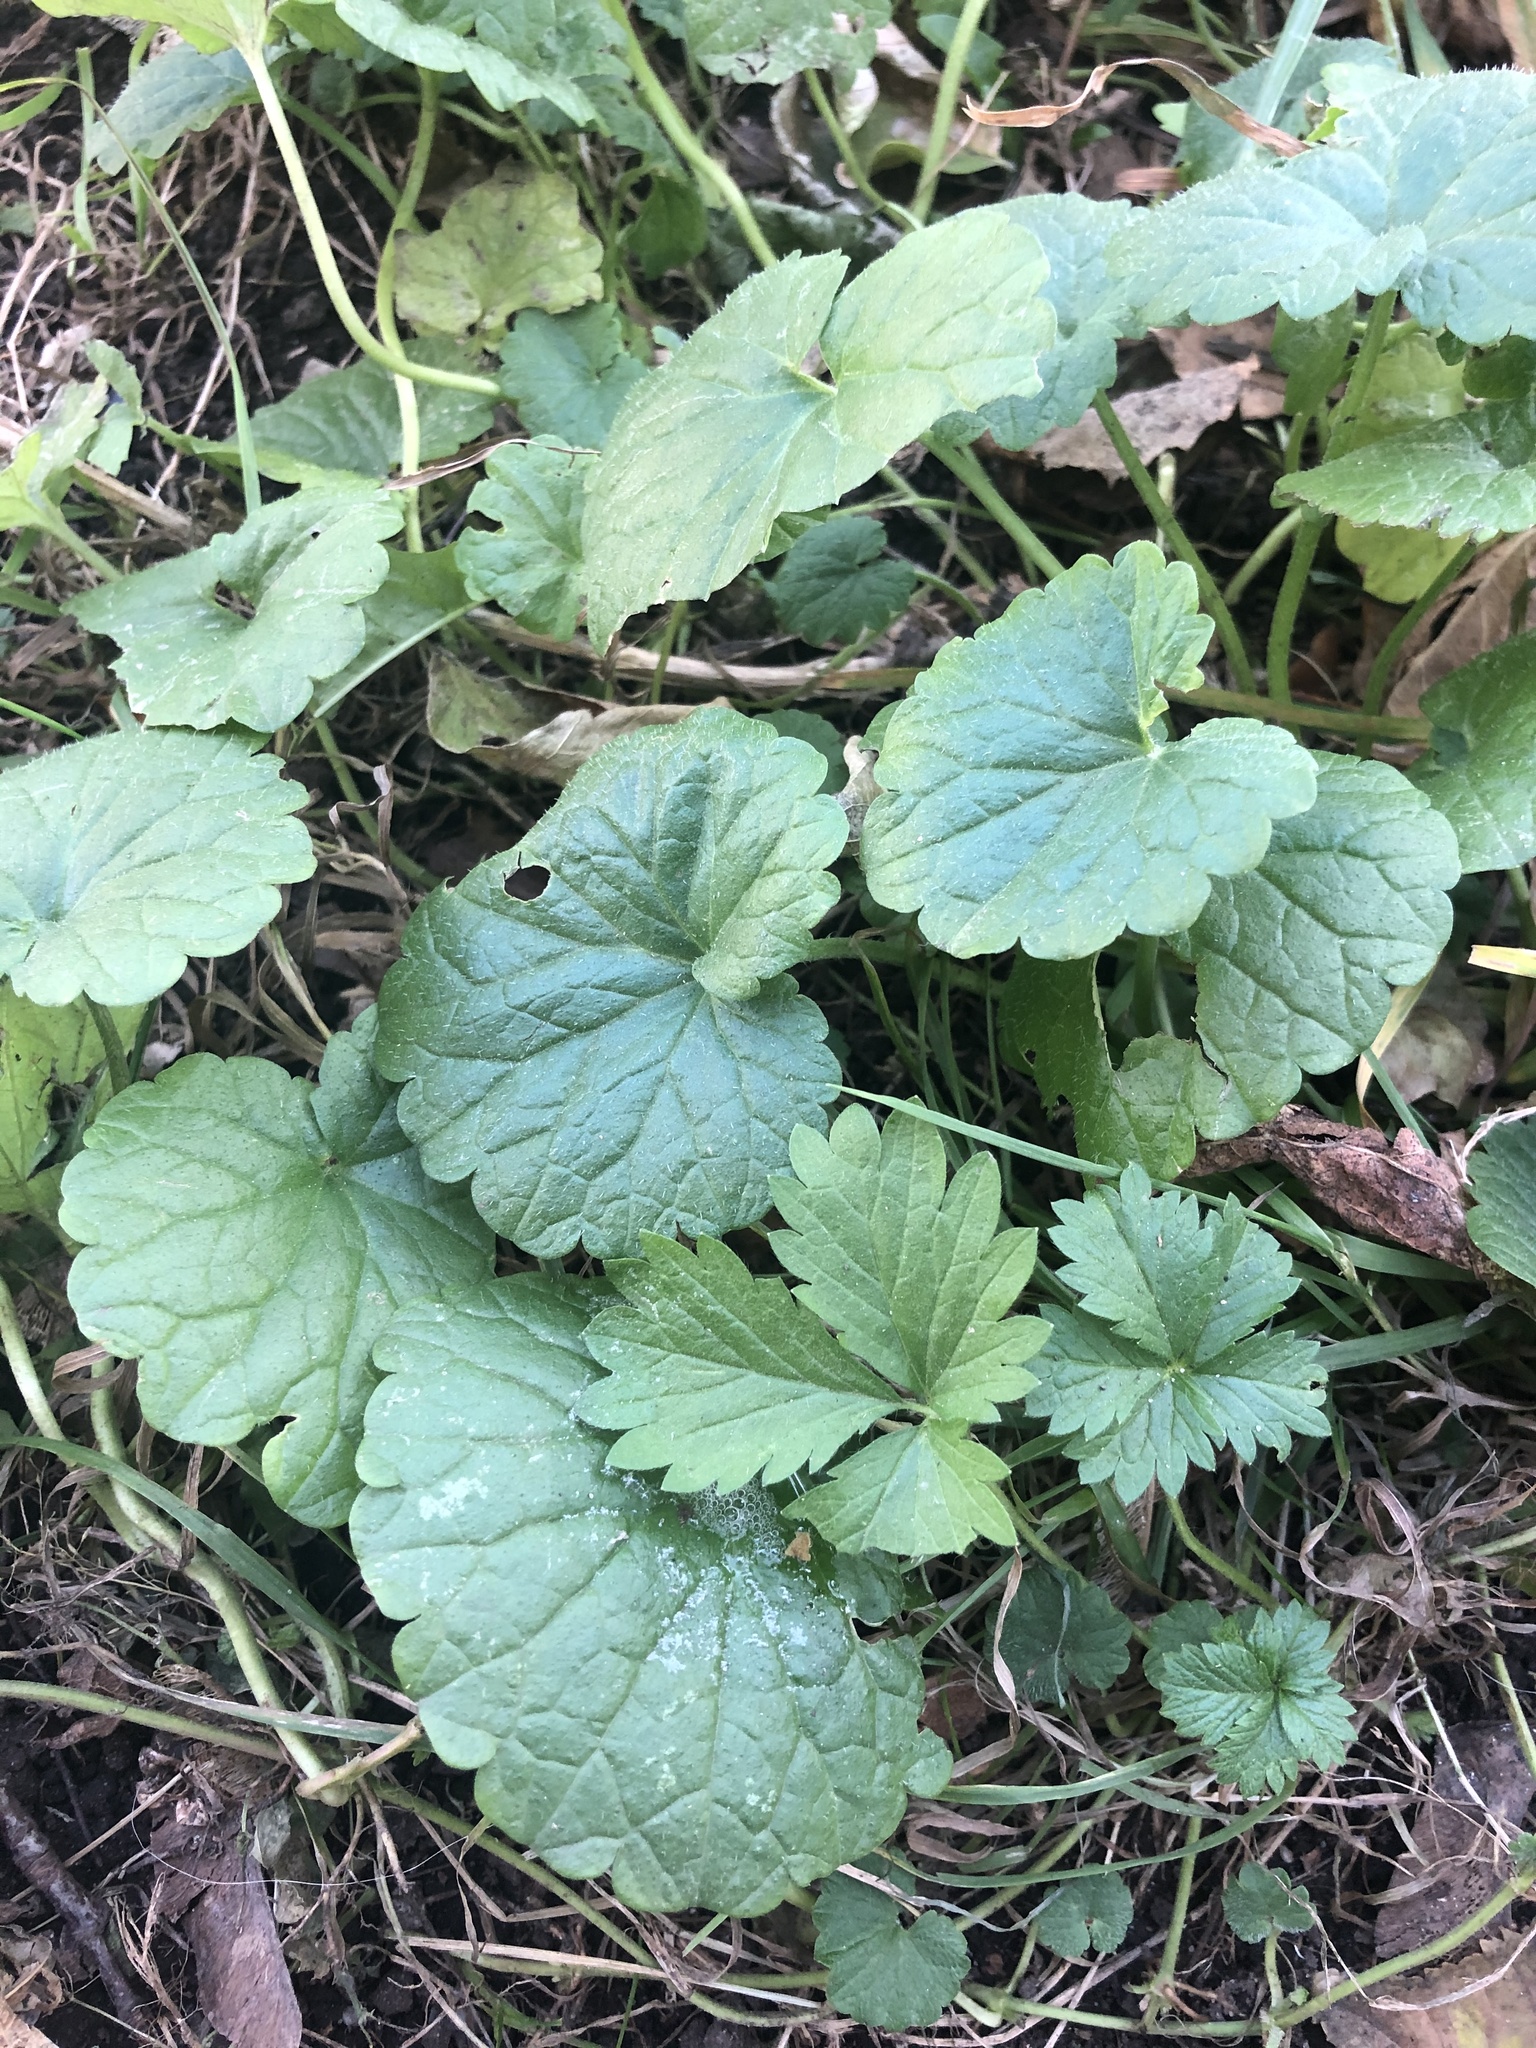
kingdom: Plantae
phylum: Tracheophyta
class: Magnoliopsida
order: Lamiales
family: Lamiaceae
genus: Glechoma
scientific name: Glechoma hederacea
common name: Ground ivy
